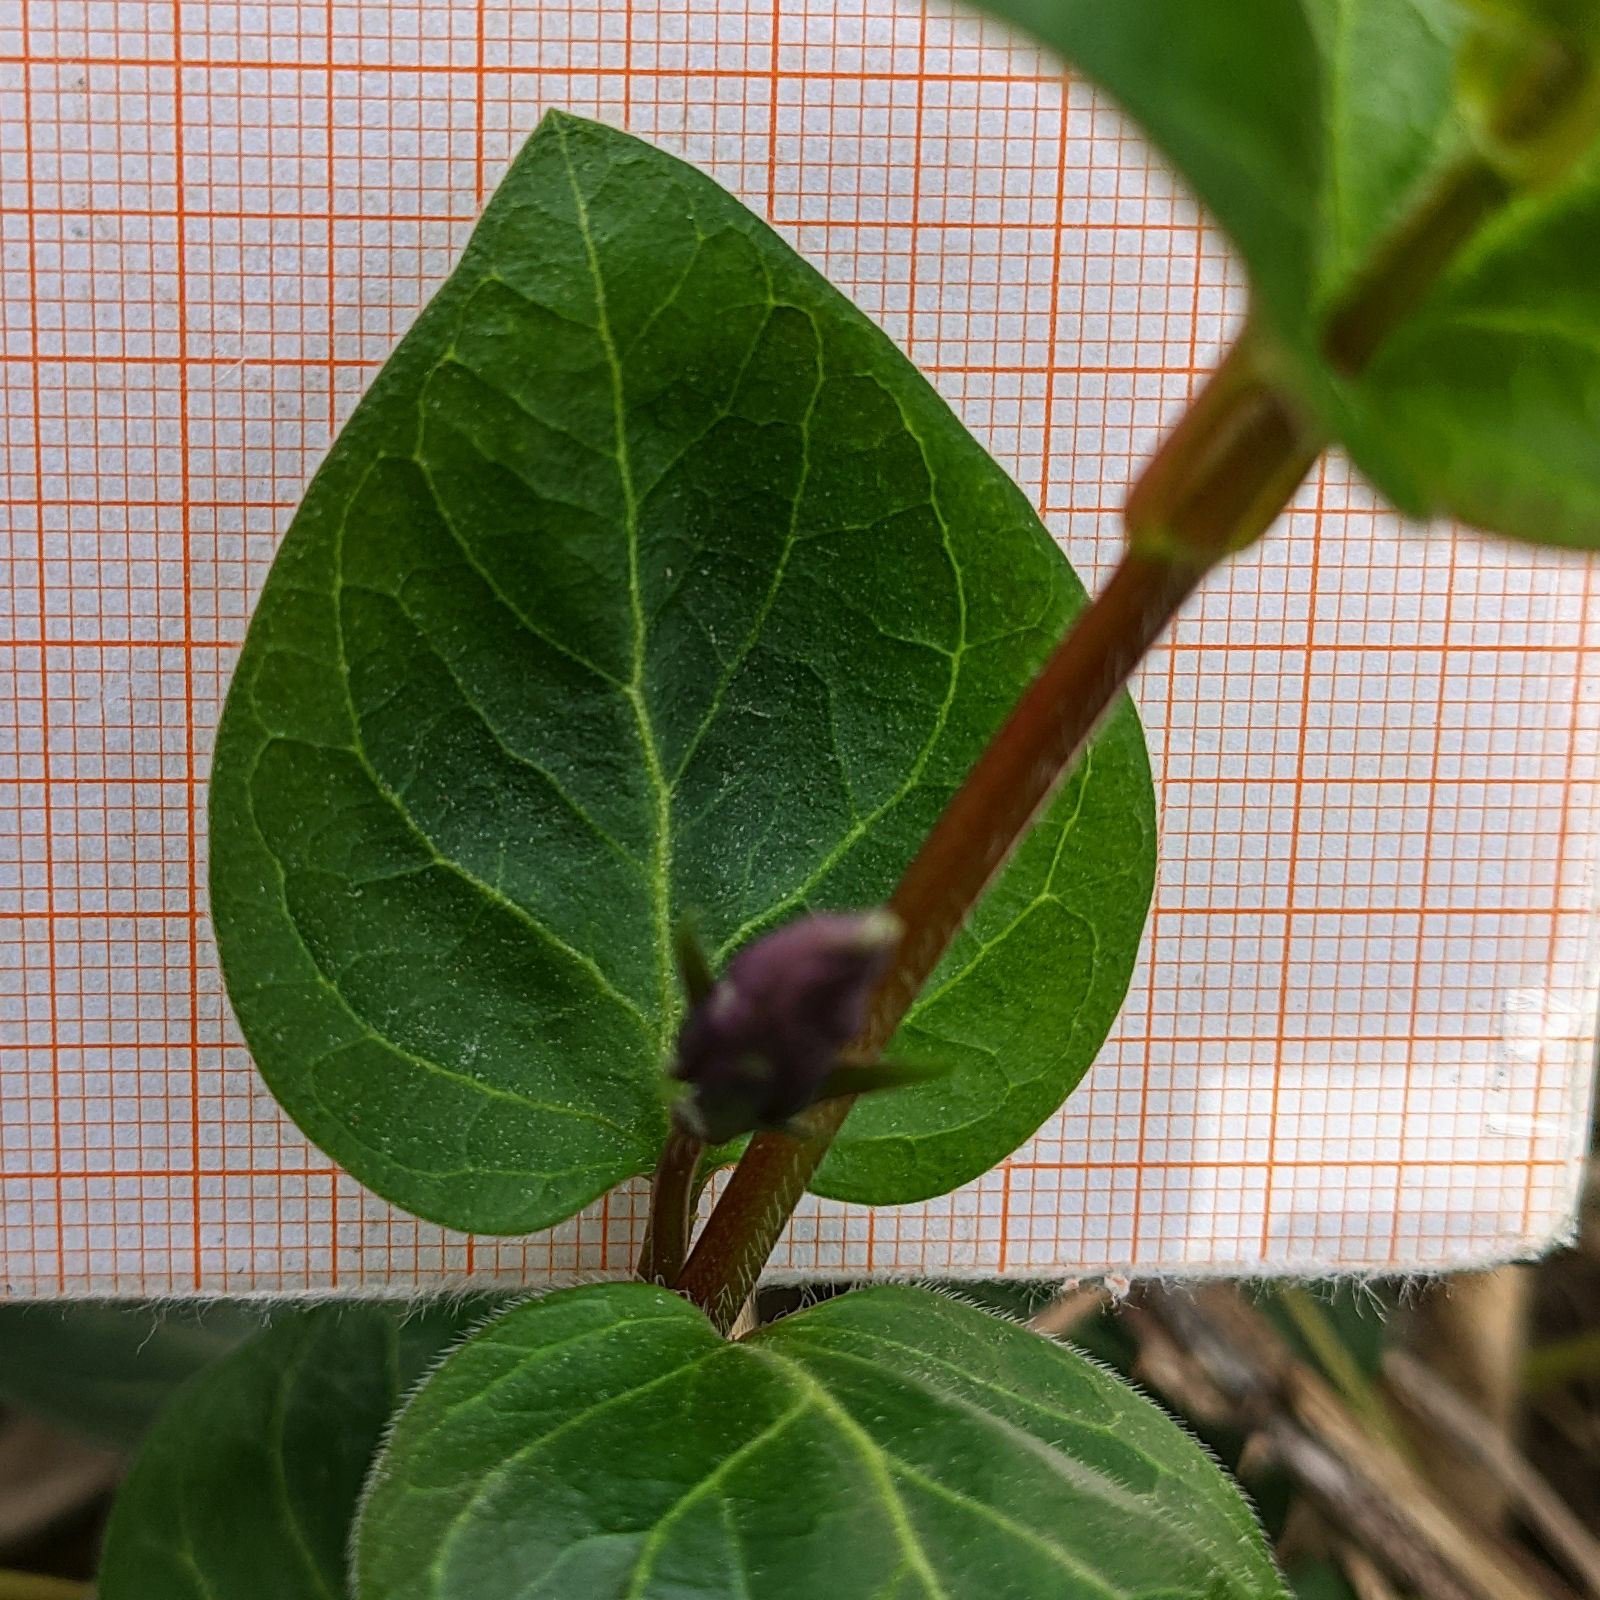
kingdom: Plantae
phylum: Tracheophyta
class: Magnoliopsida
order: Gentianales
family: Apocynaceae
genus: Vinca
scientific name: Vinca major
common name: Greater periwinkle
